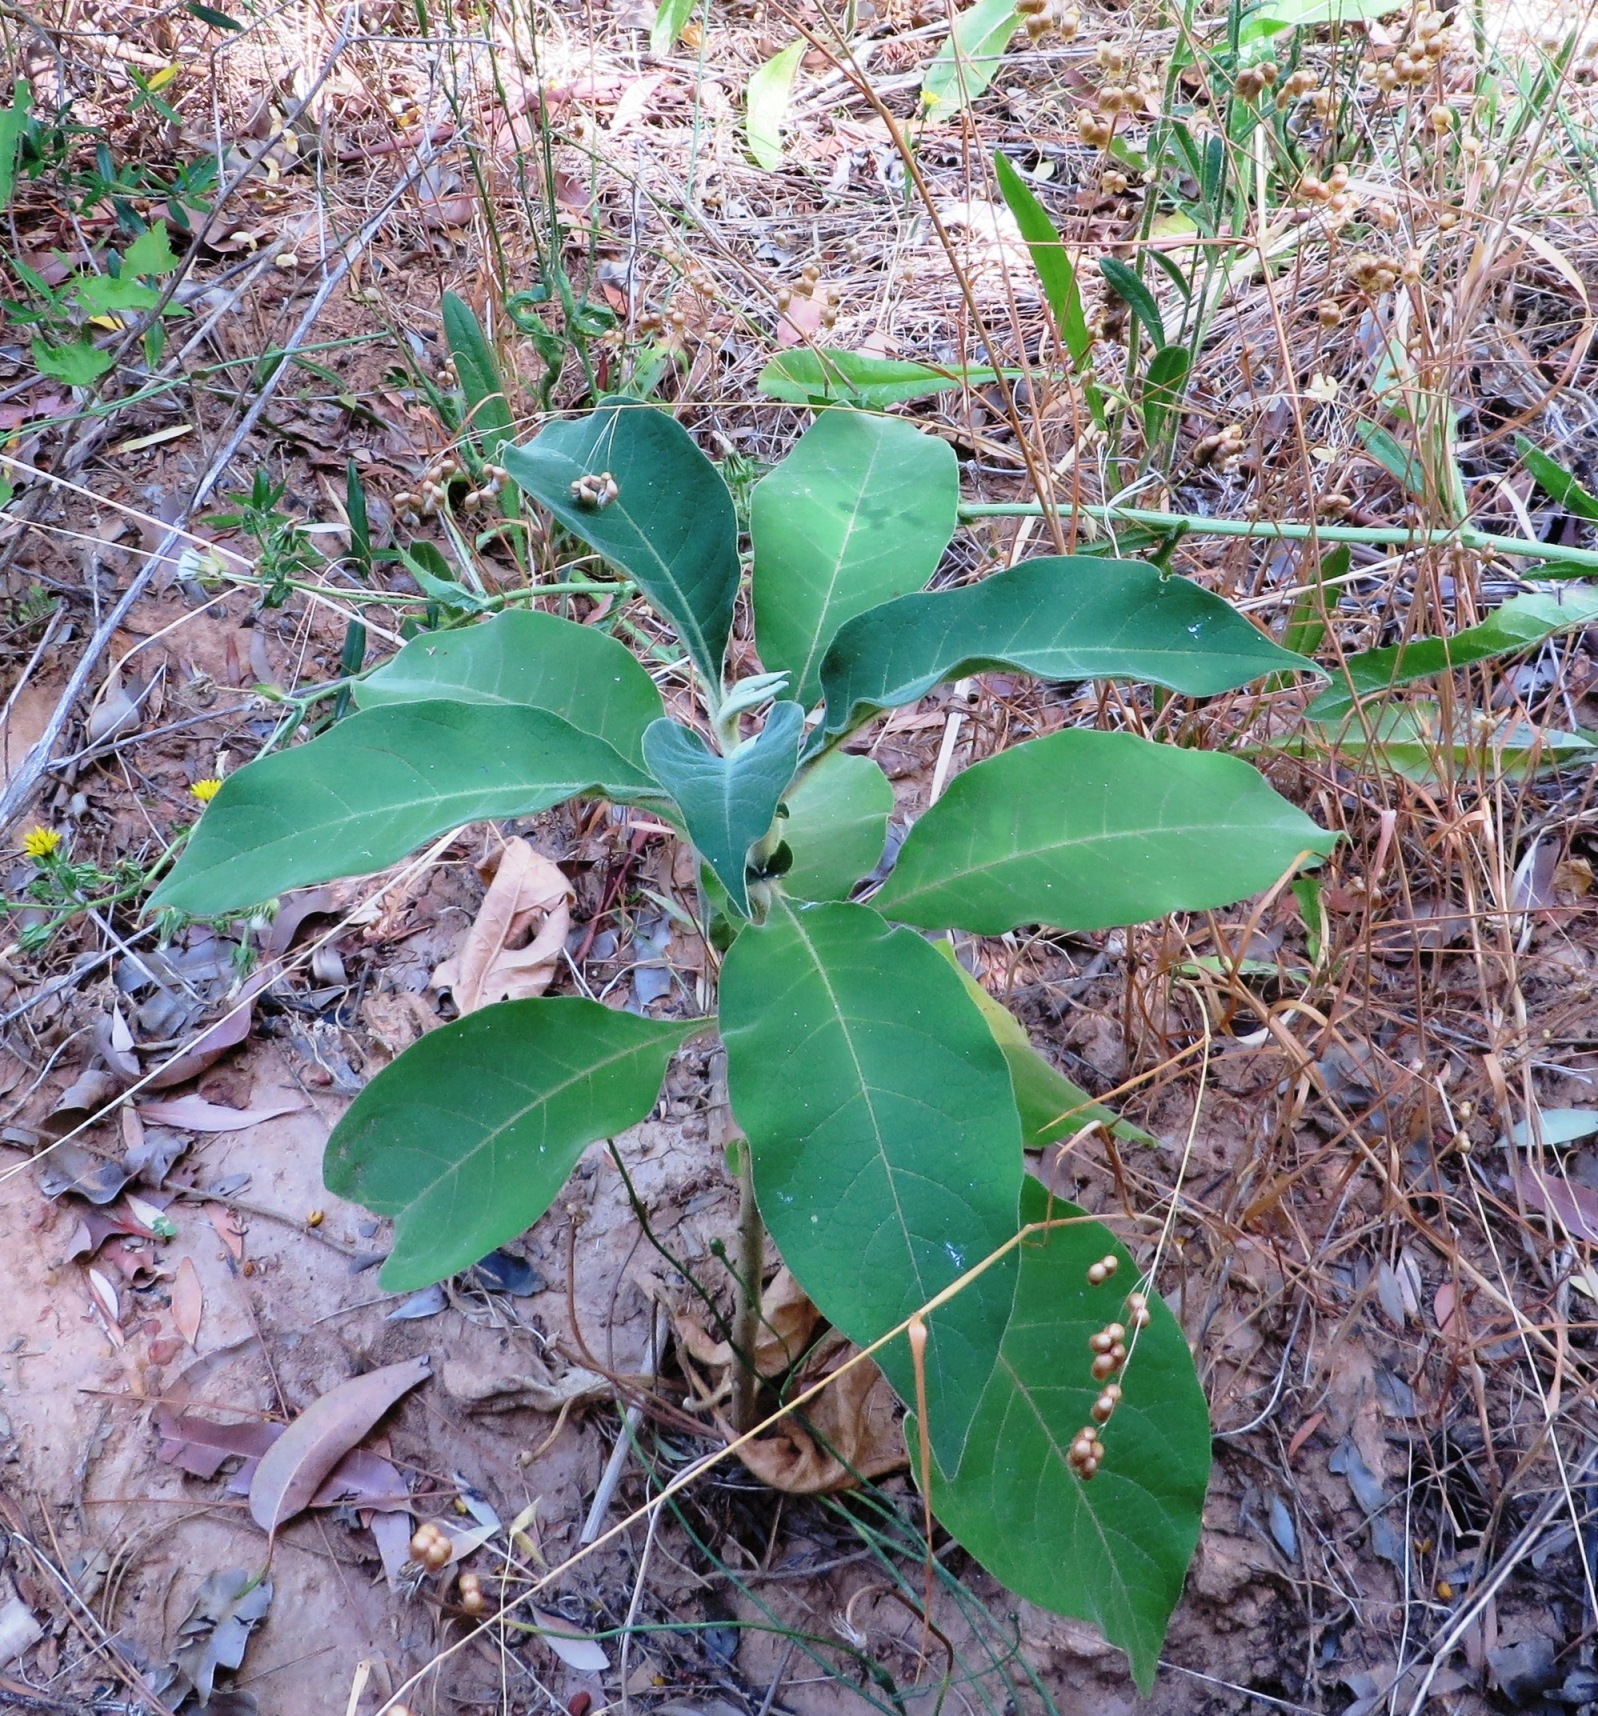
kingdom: Plantae
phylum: Tracheophyta
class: Magnoliopsida
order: Solanales
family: Solanaceae
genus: Solanum
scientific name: Solanum mauritianum
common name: Earleaf nightshade
